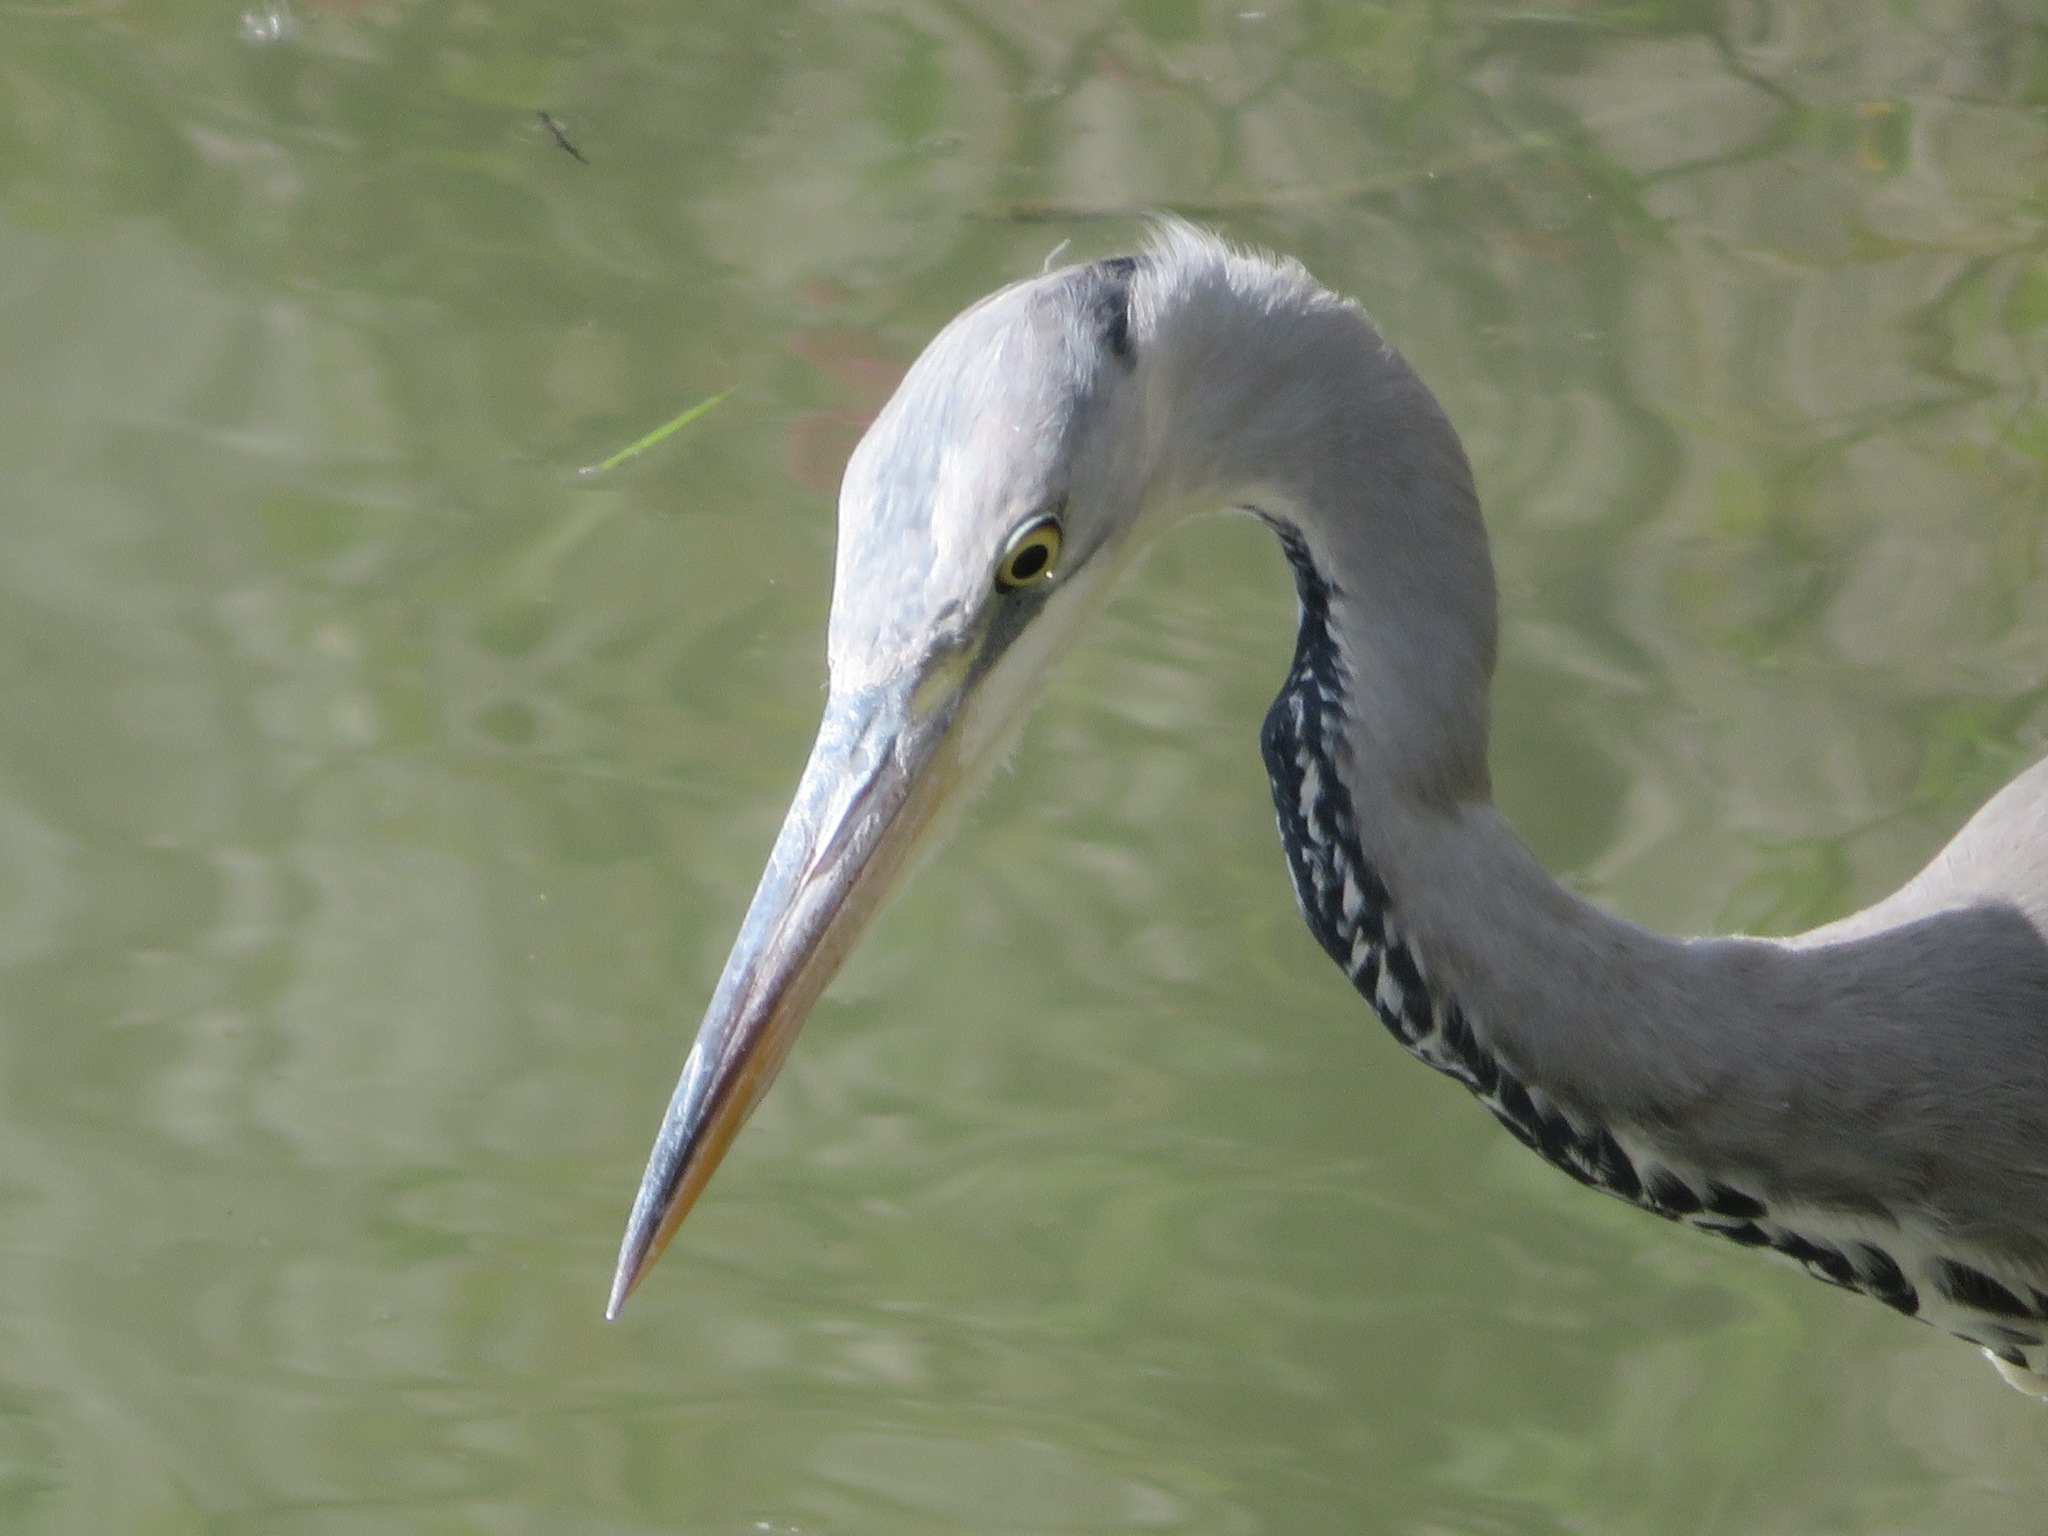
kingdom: Animalia
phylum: Chordata
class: Aves
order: Pelecaniformes
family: Ardeidae
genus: Ardea
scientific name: Ardea cinerea
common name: Grey heron
